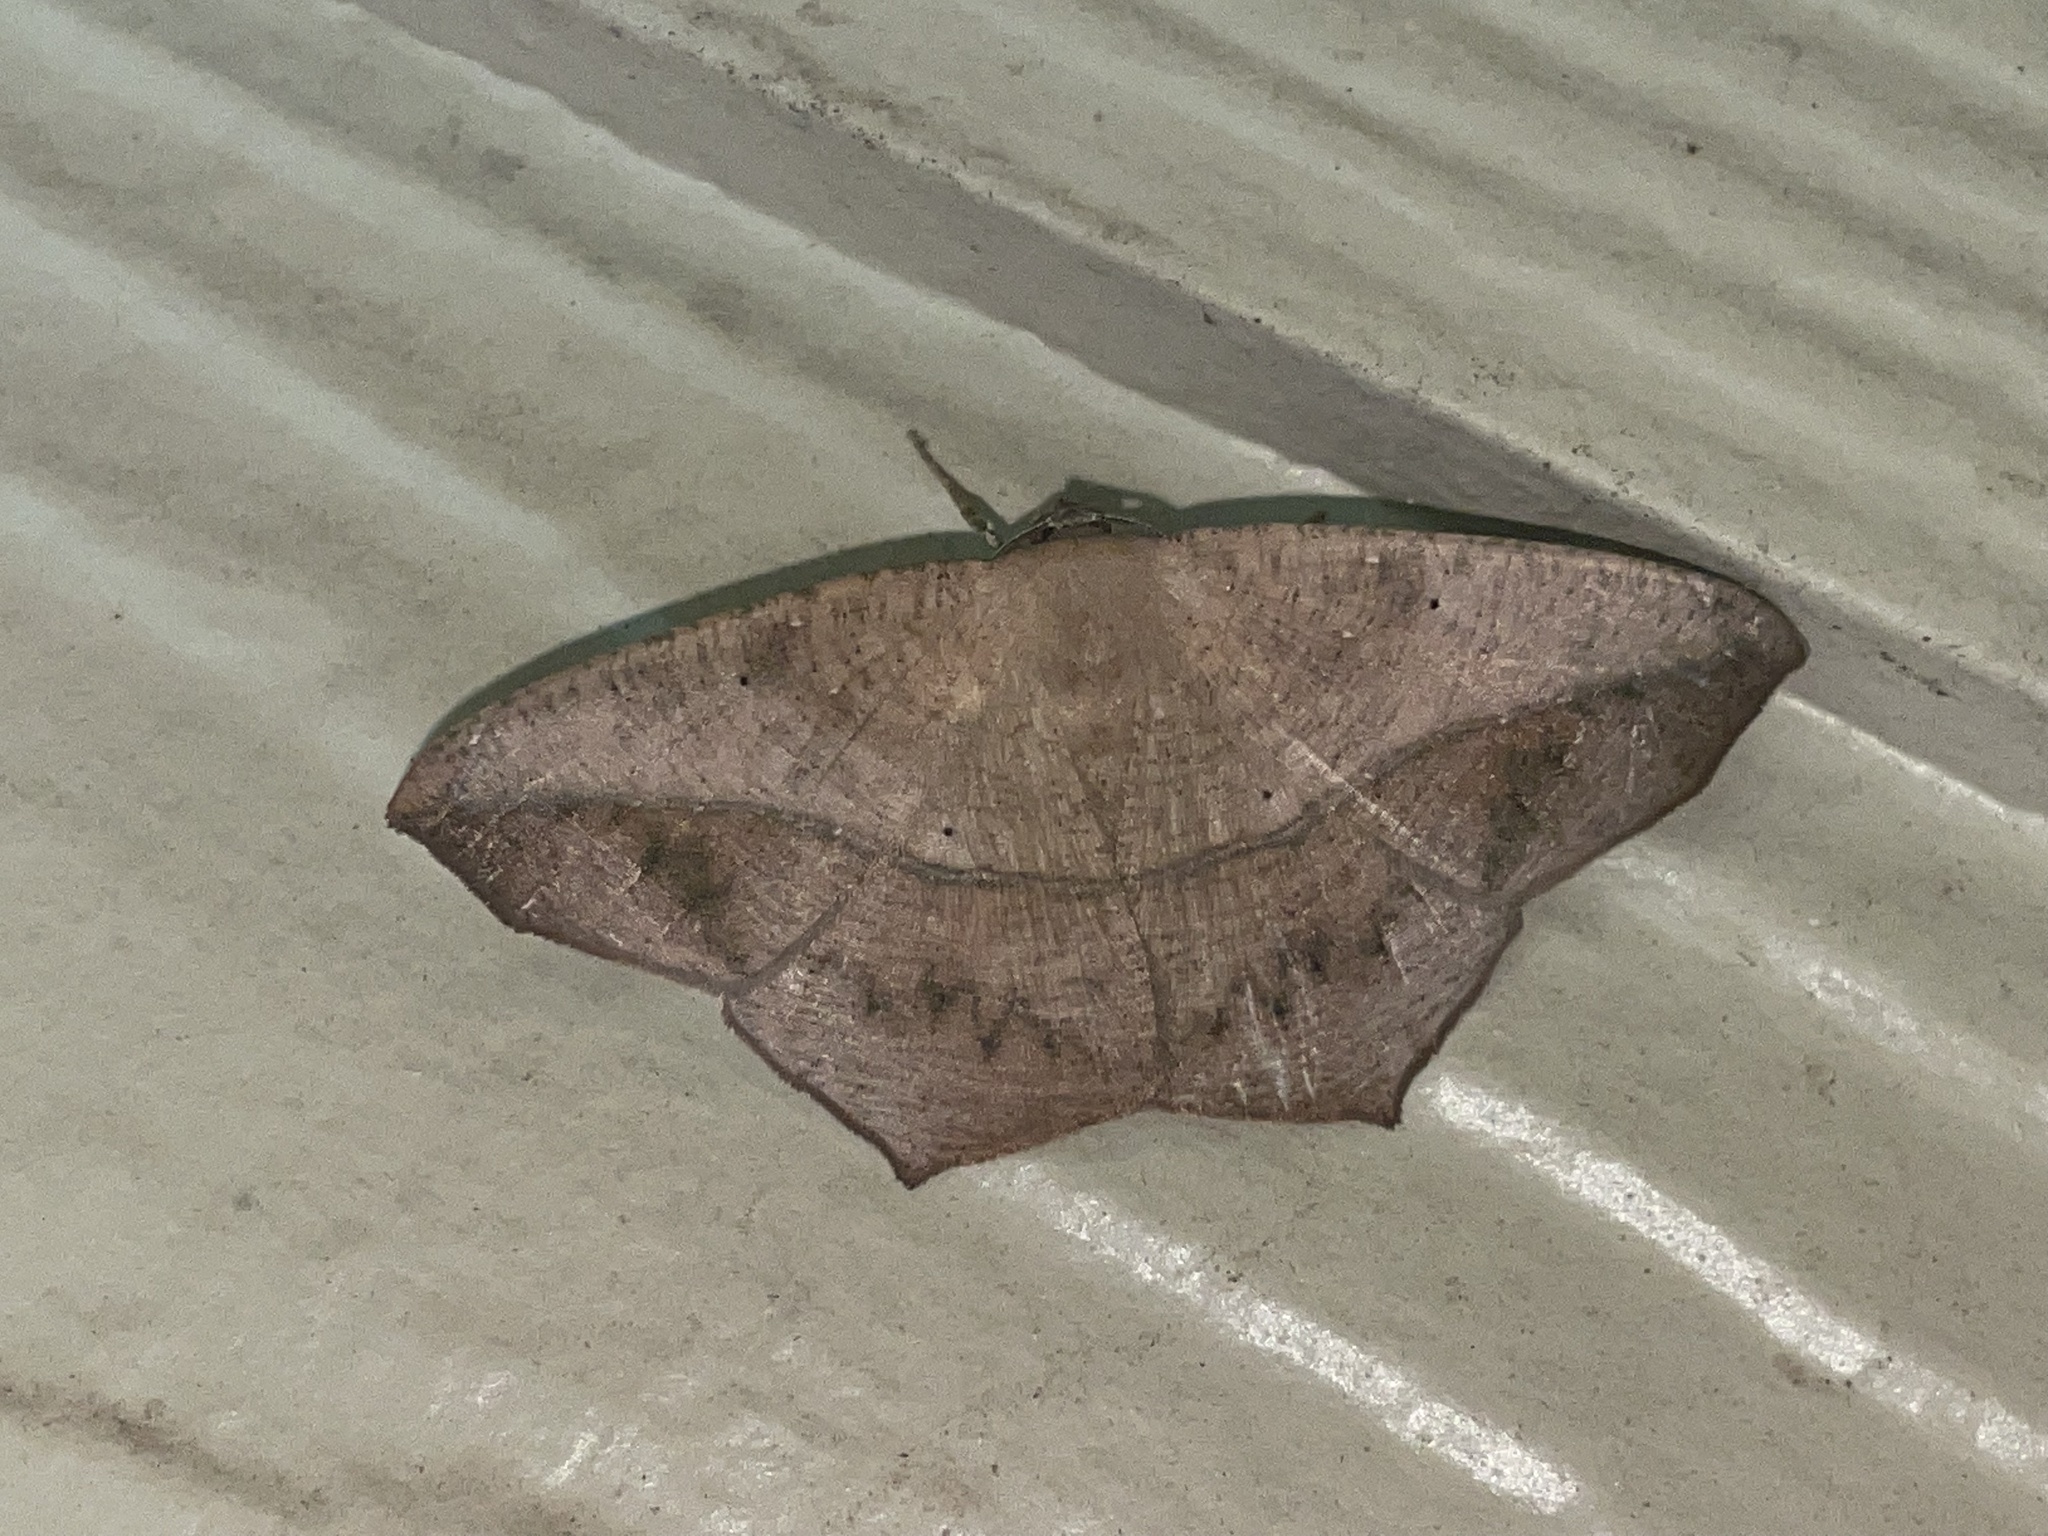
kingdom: Animalia
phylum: Arthropoda
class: Insecta
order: Lepidoptera
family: Geometridae
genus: Prochoerodes
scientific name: Prochoerodes lineola
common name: Large maple spanworm
